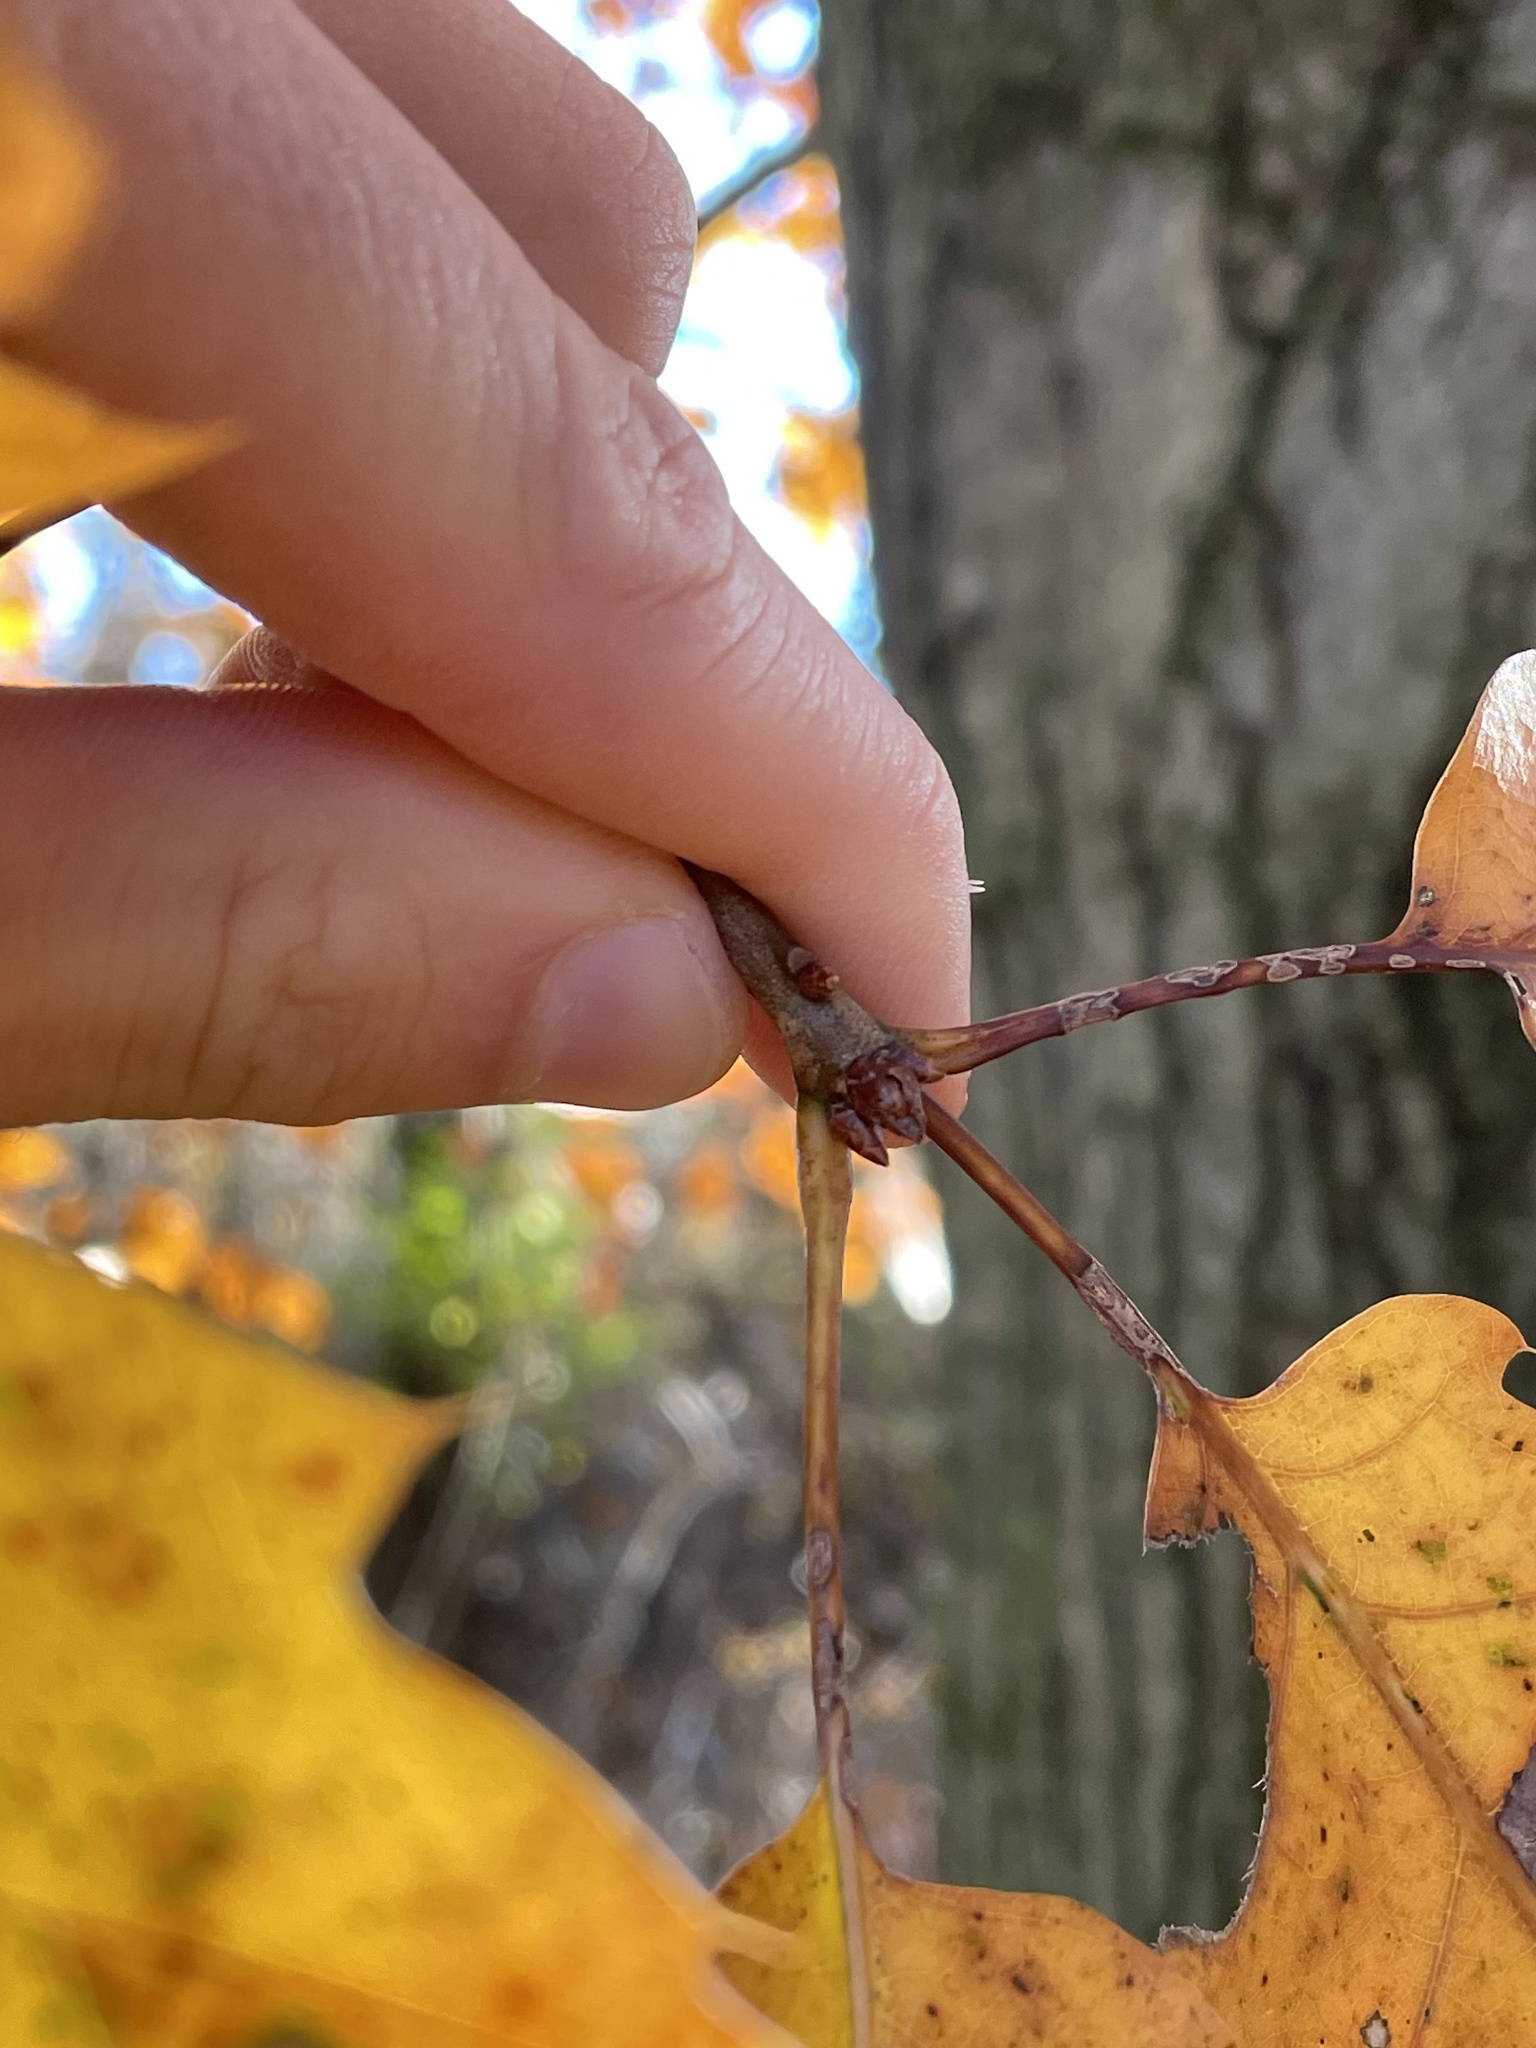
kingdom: Plantae
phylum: Tracheophyta
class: Magnoliopsida
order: Fagales
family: Fagaceae
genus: Quercus
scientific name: Quercus rubra
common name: Red oak
